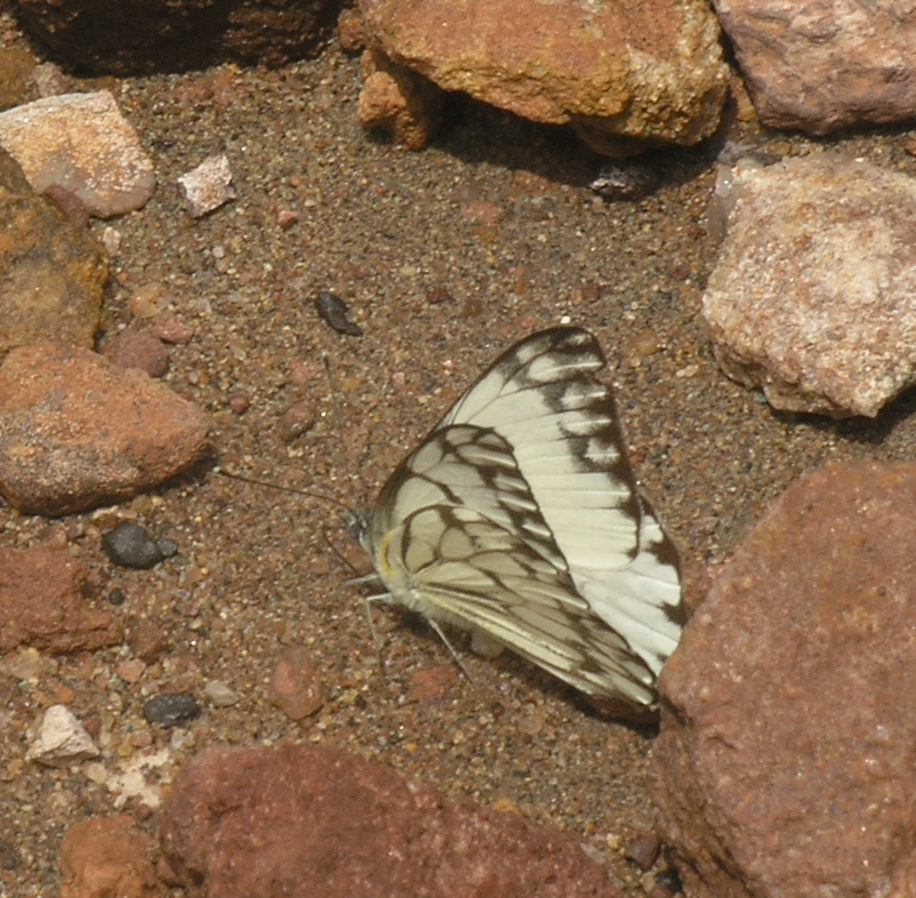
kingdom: Animalia
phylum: Arthropoda
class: Insecta
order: Lepidoptera
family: Pieridae
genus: Belenois
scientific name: Belenois gidica
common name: Pointed caper white
